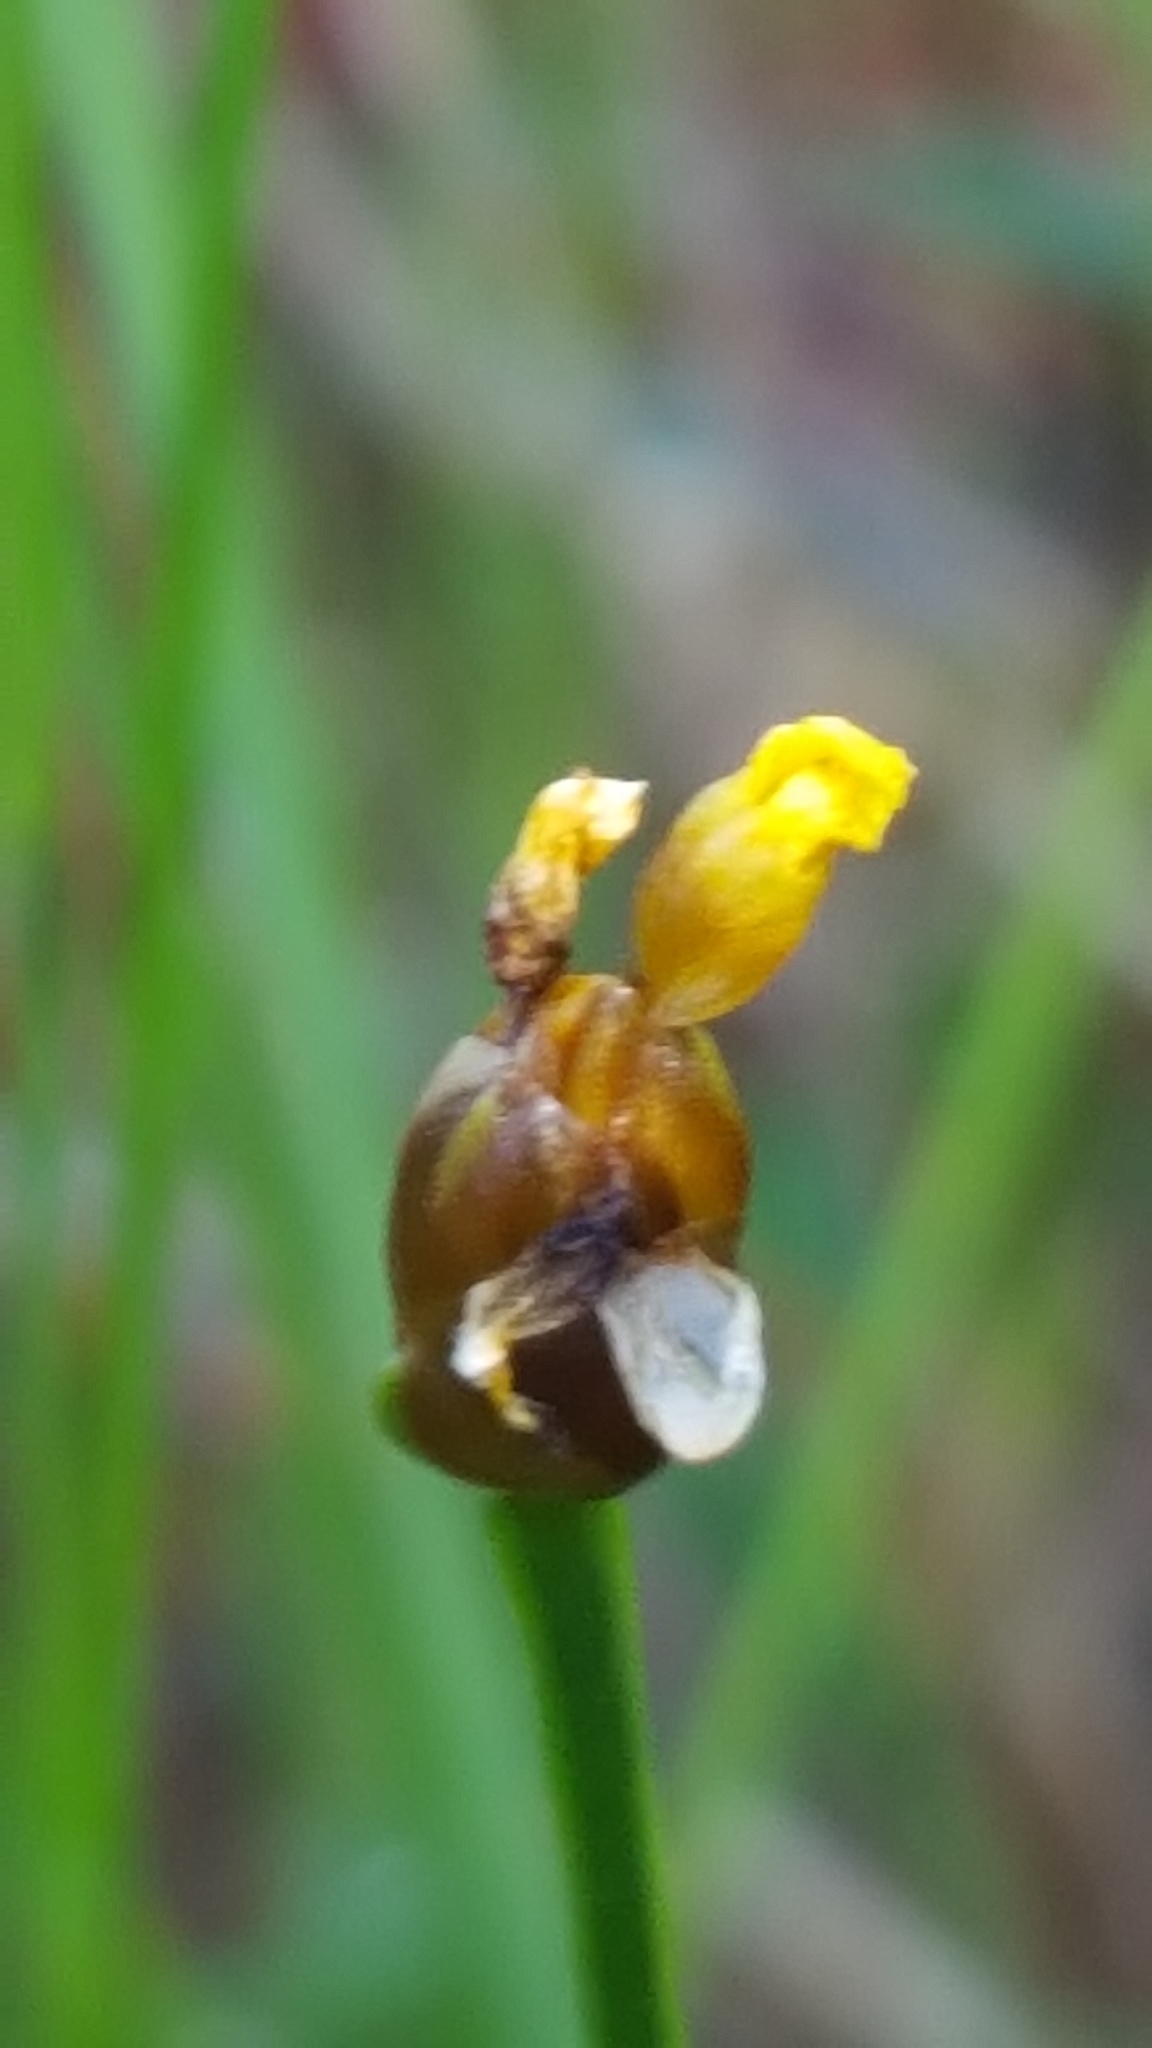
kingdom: Plantae
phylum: Tracheophyta
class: Liliopsida
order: Poales
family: Xyridaceae
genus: Xyris
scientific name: Xyris montana
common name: Northern yellow-eyed-grass
